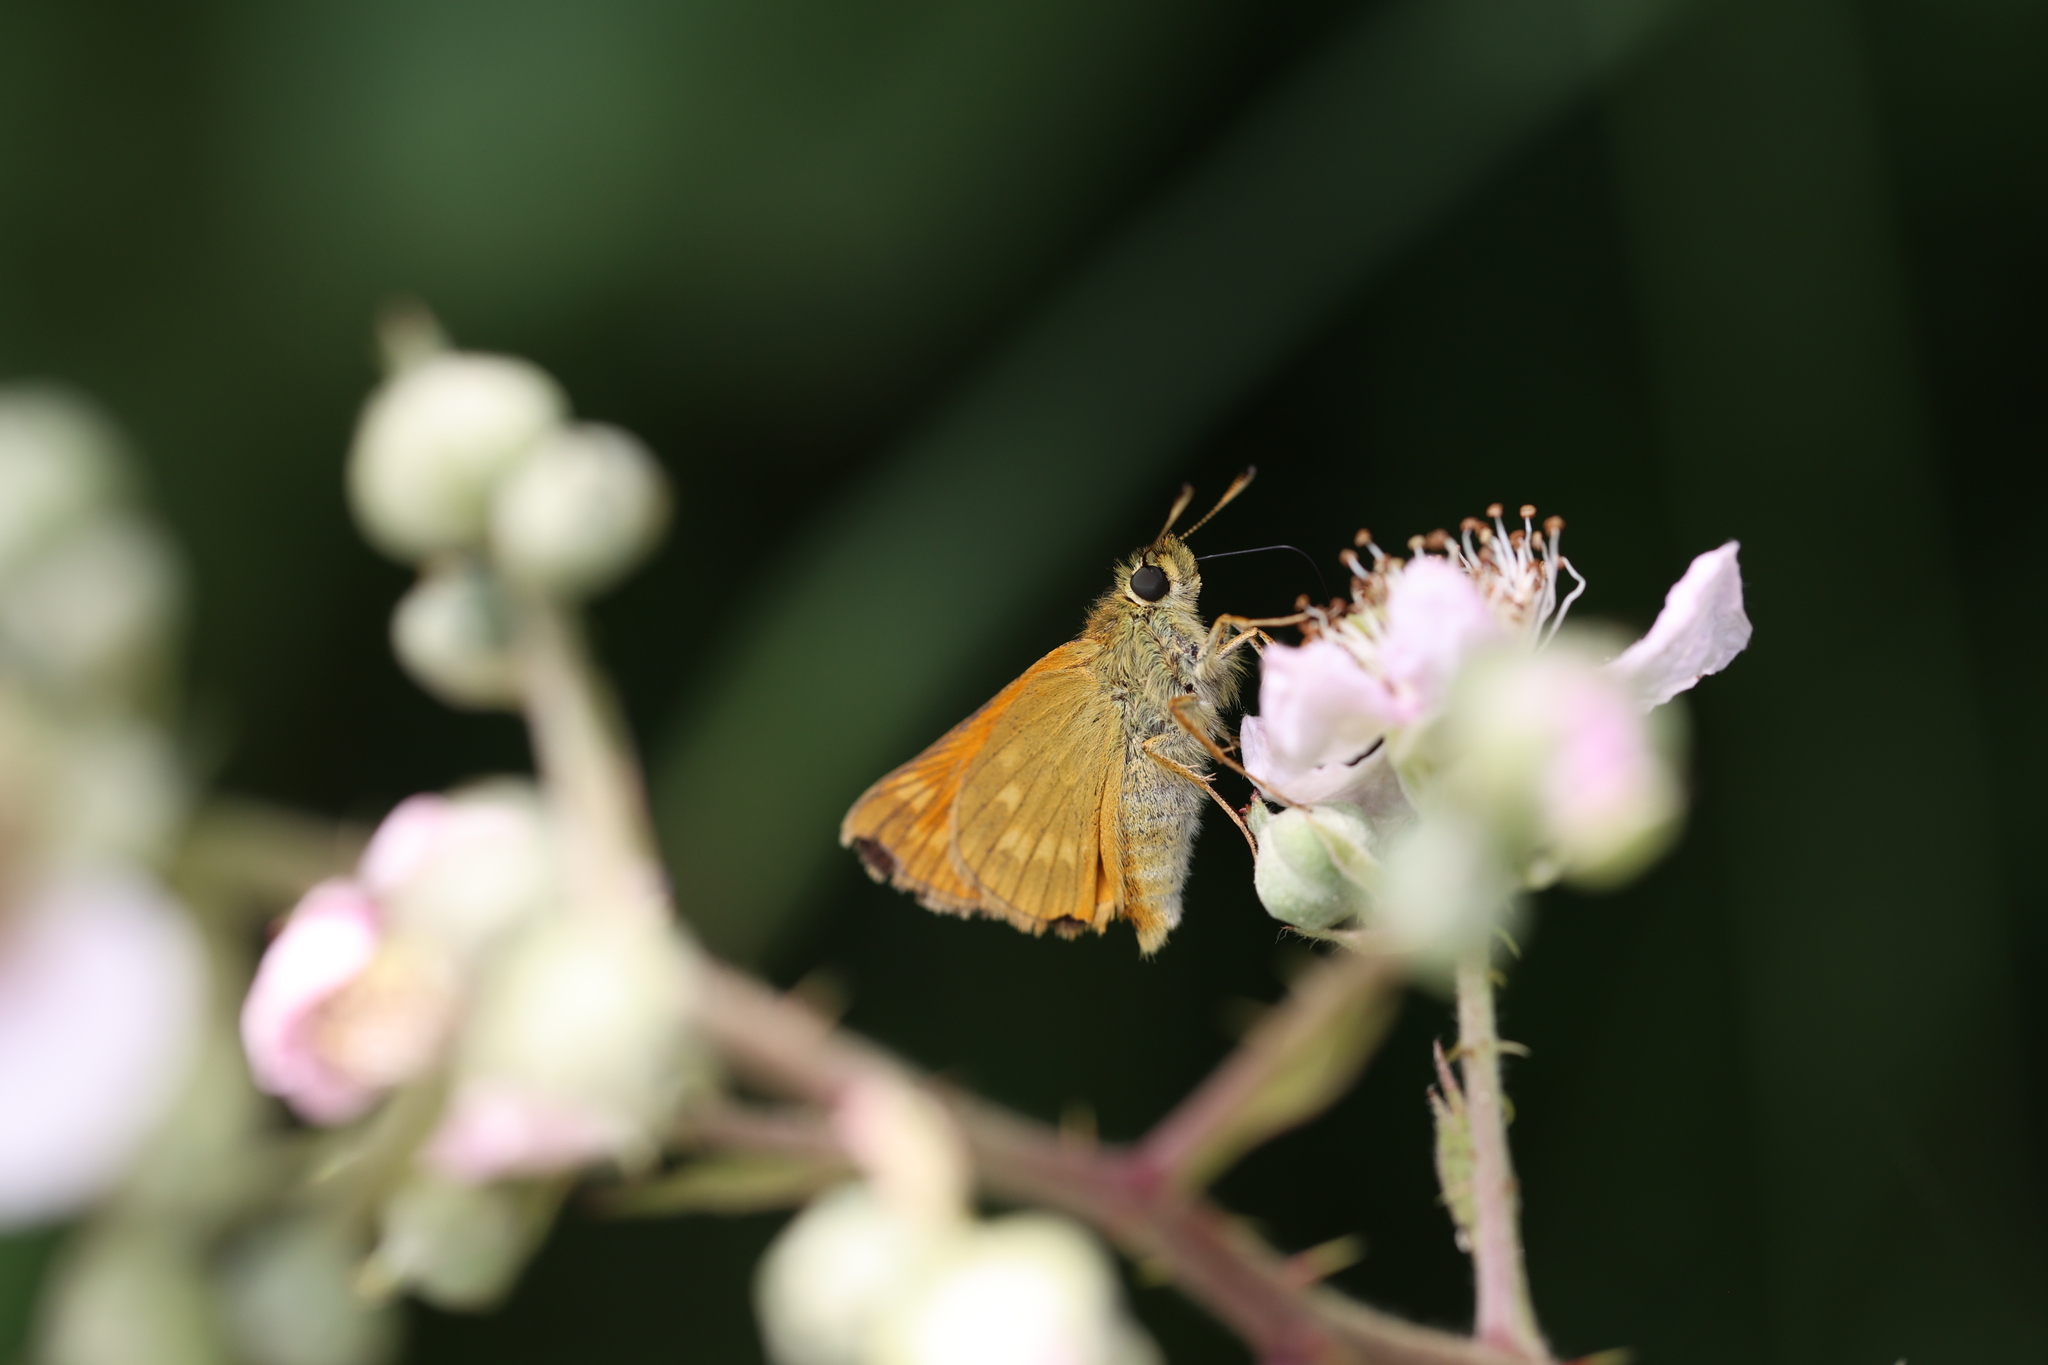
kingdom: Animalia
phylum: Arthropoda
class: Insecta
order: Lepidoptera
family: Hesperiidae
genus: Ochlodes
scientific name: Ochlodes venata
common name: Large skipper
